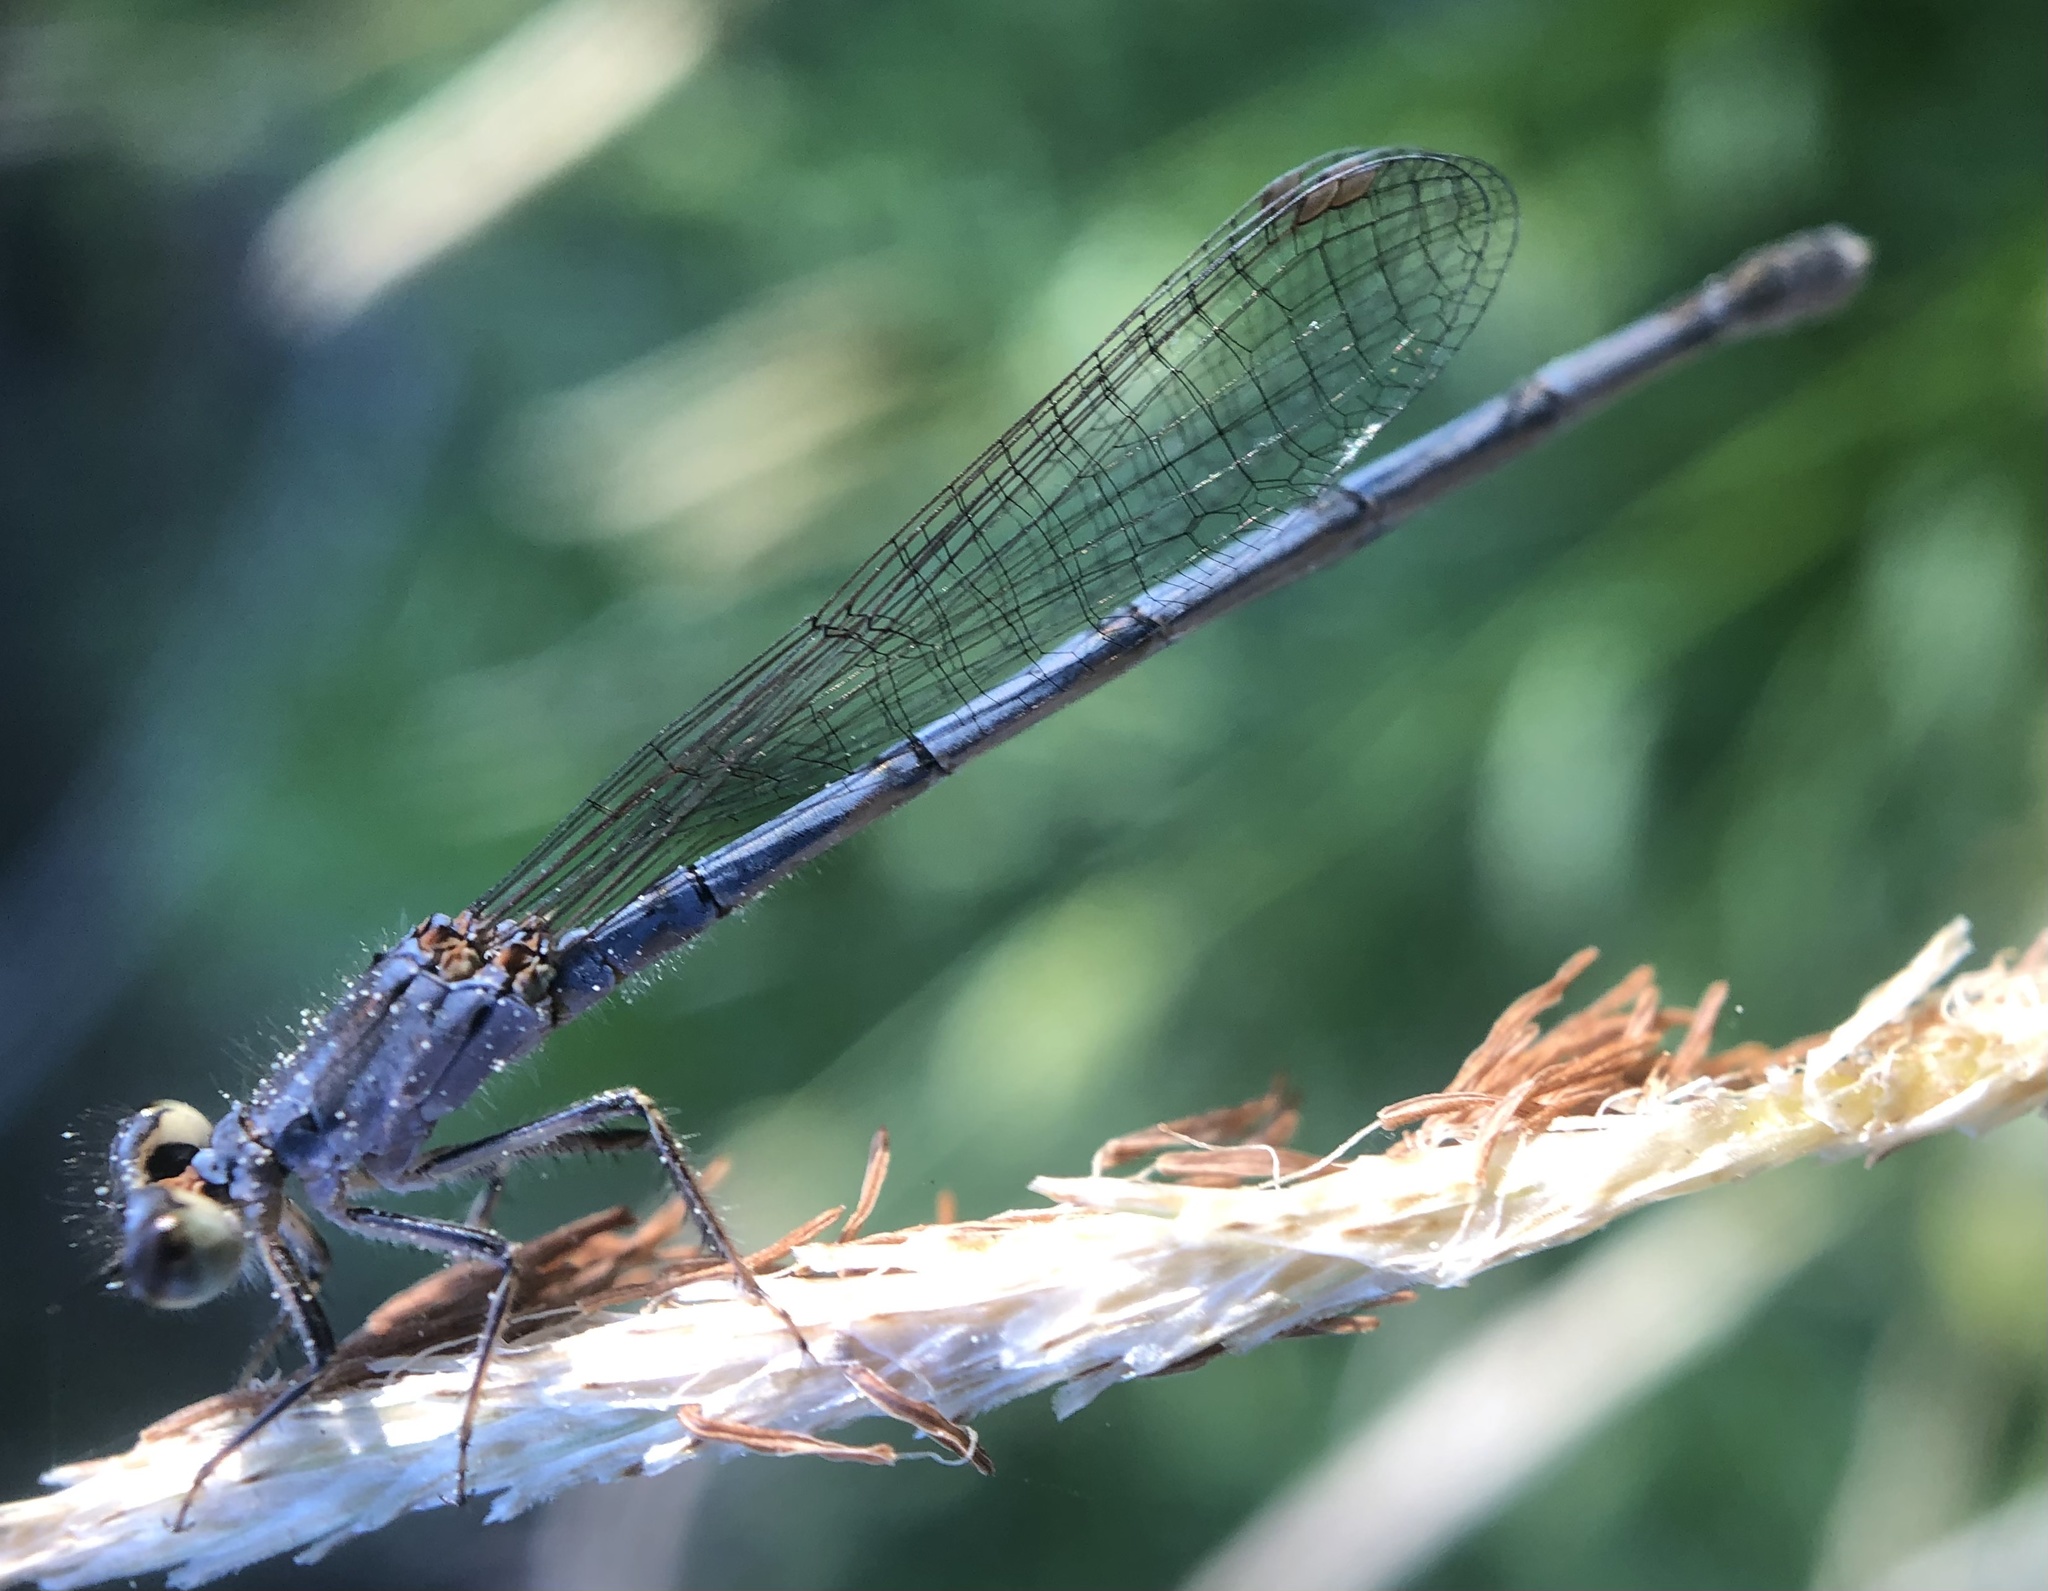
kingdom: Animalia
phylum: Arthropoda
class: Insecta
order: Odonata
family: Coenagrionidae
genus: Ischnura
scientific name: Ischnura posita
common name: Fragile forktail
